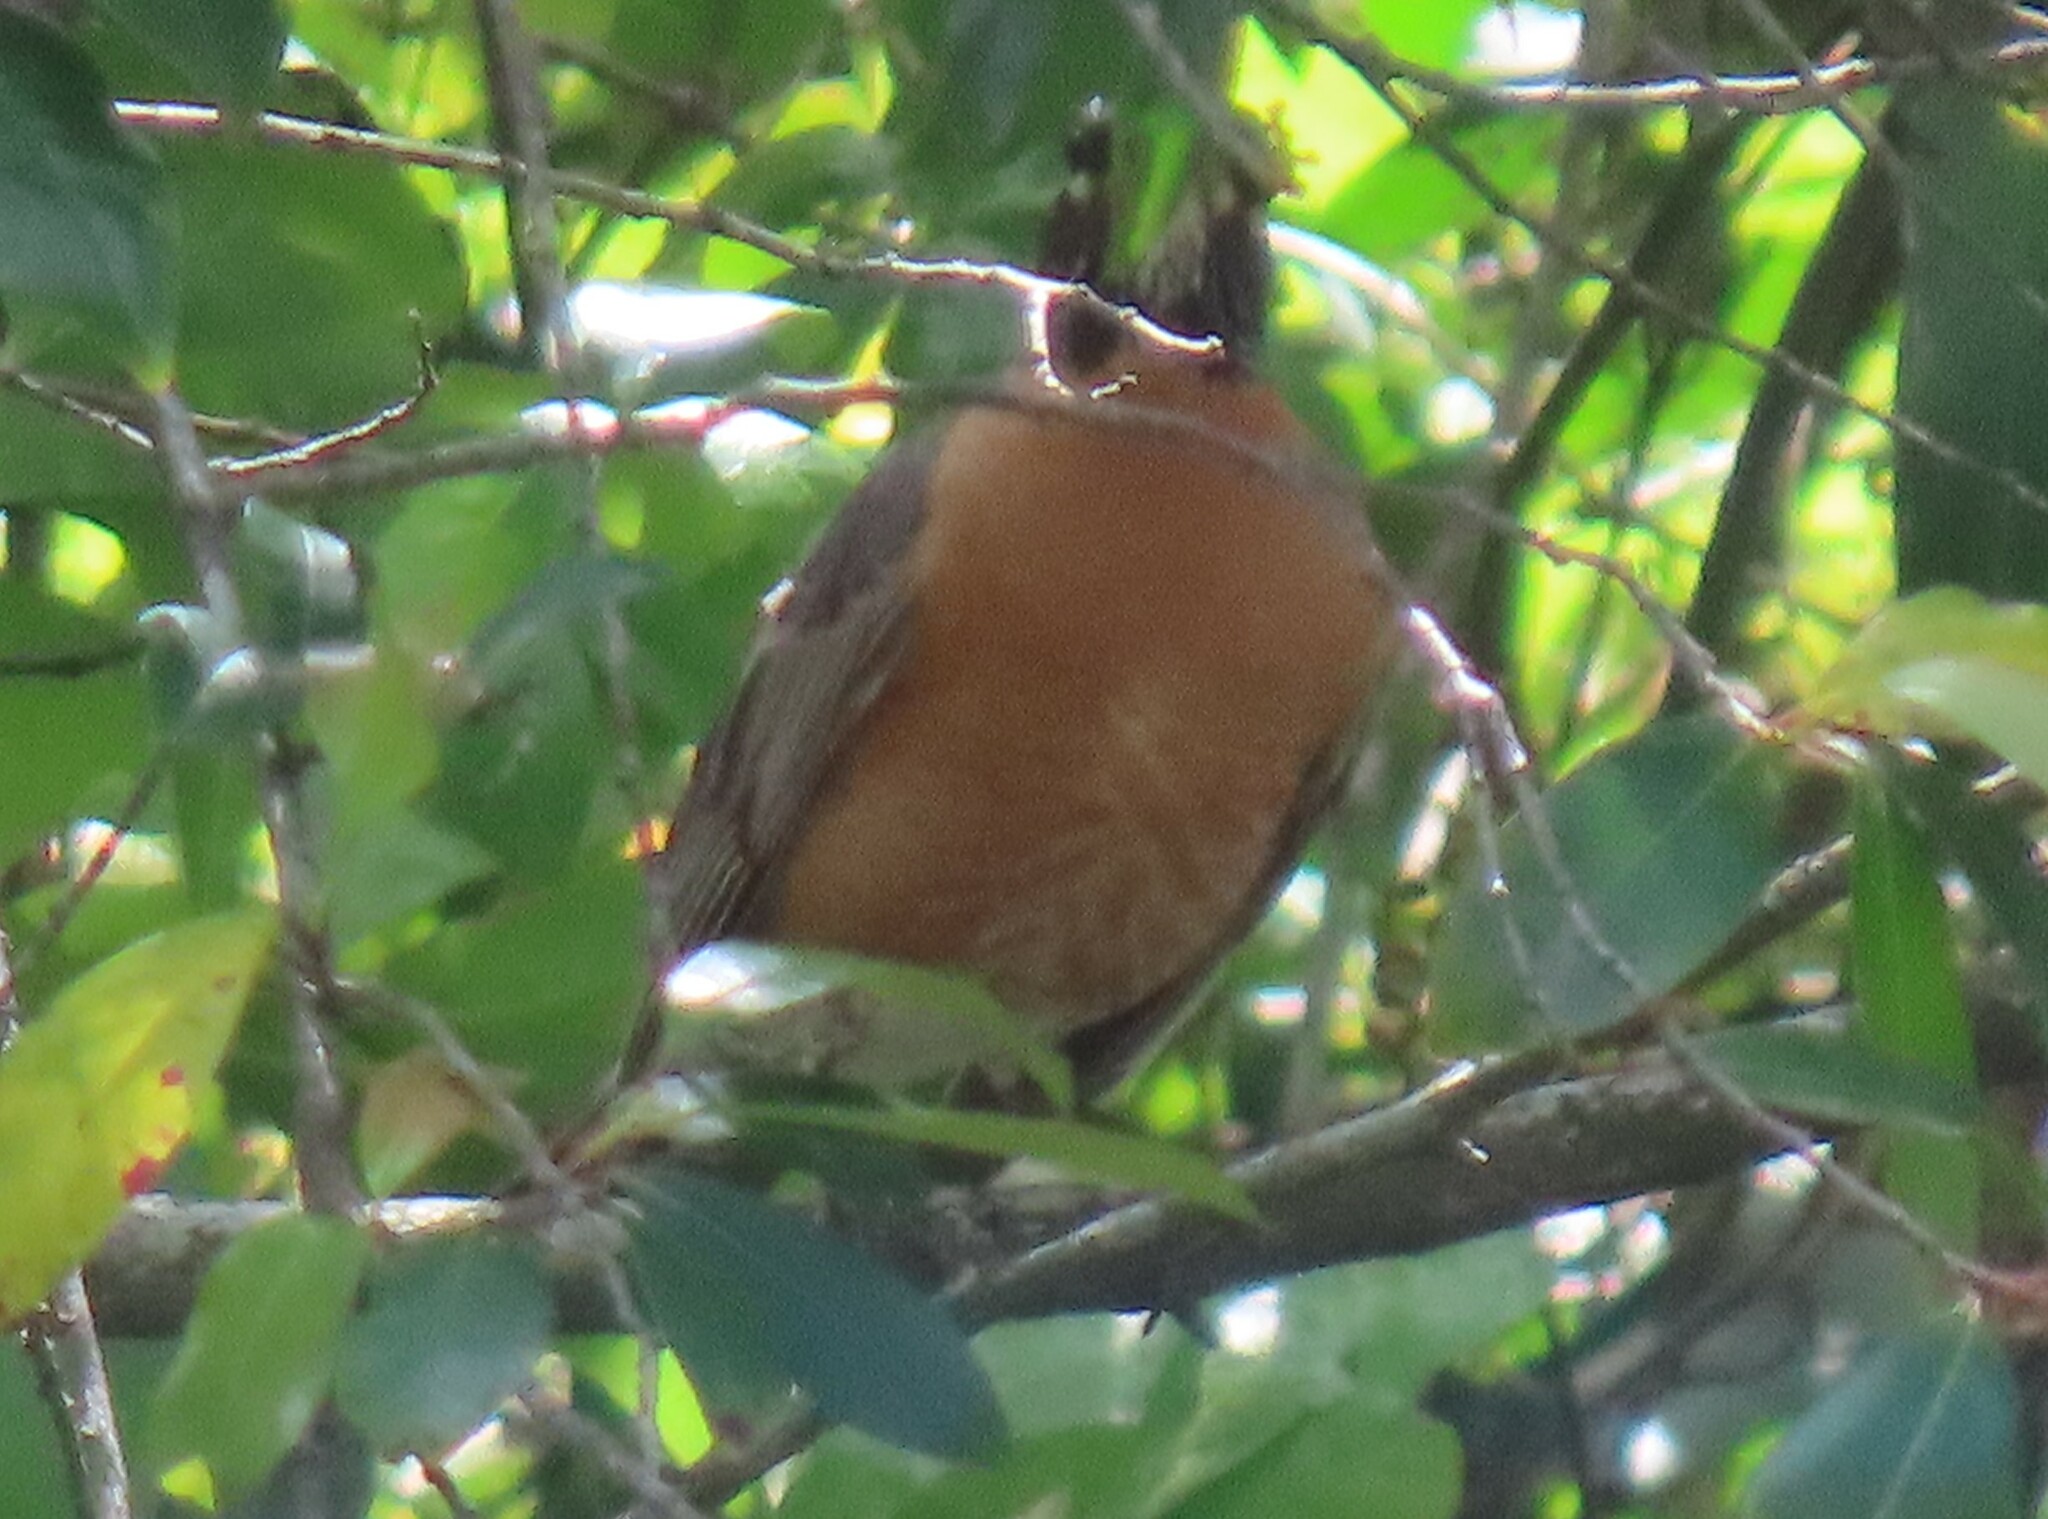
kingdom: Animalia
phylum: Chordata
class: Aves
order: Passeriformes
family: Turdidae
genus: Turdus
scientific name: Turdus migratorius
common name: American robin
